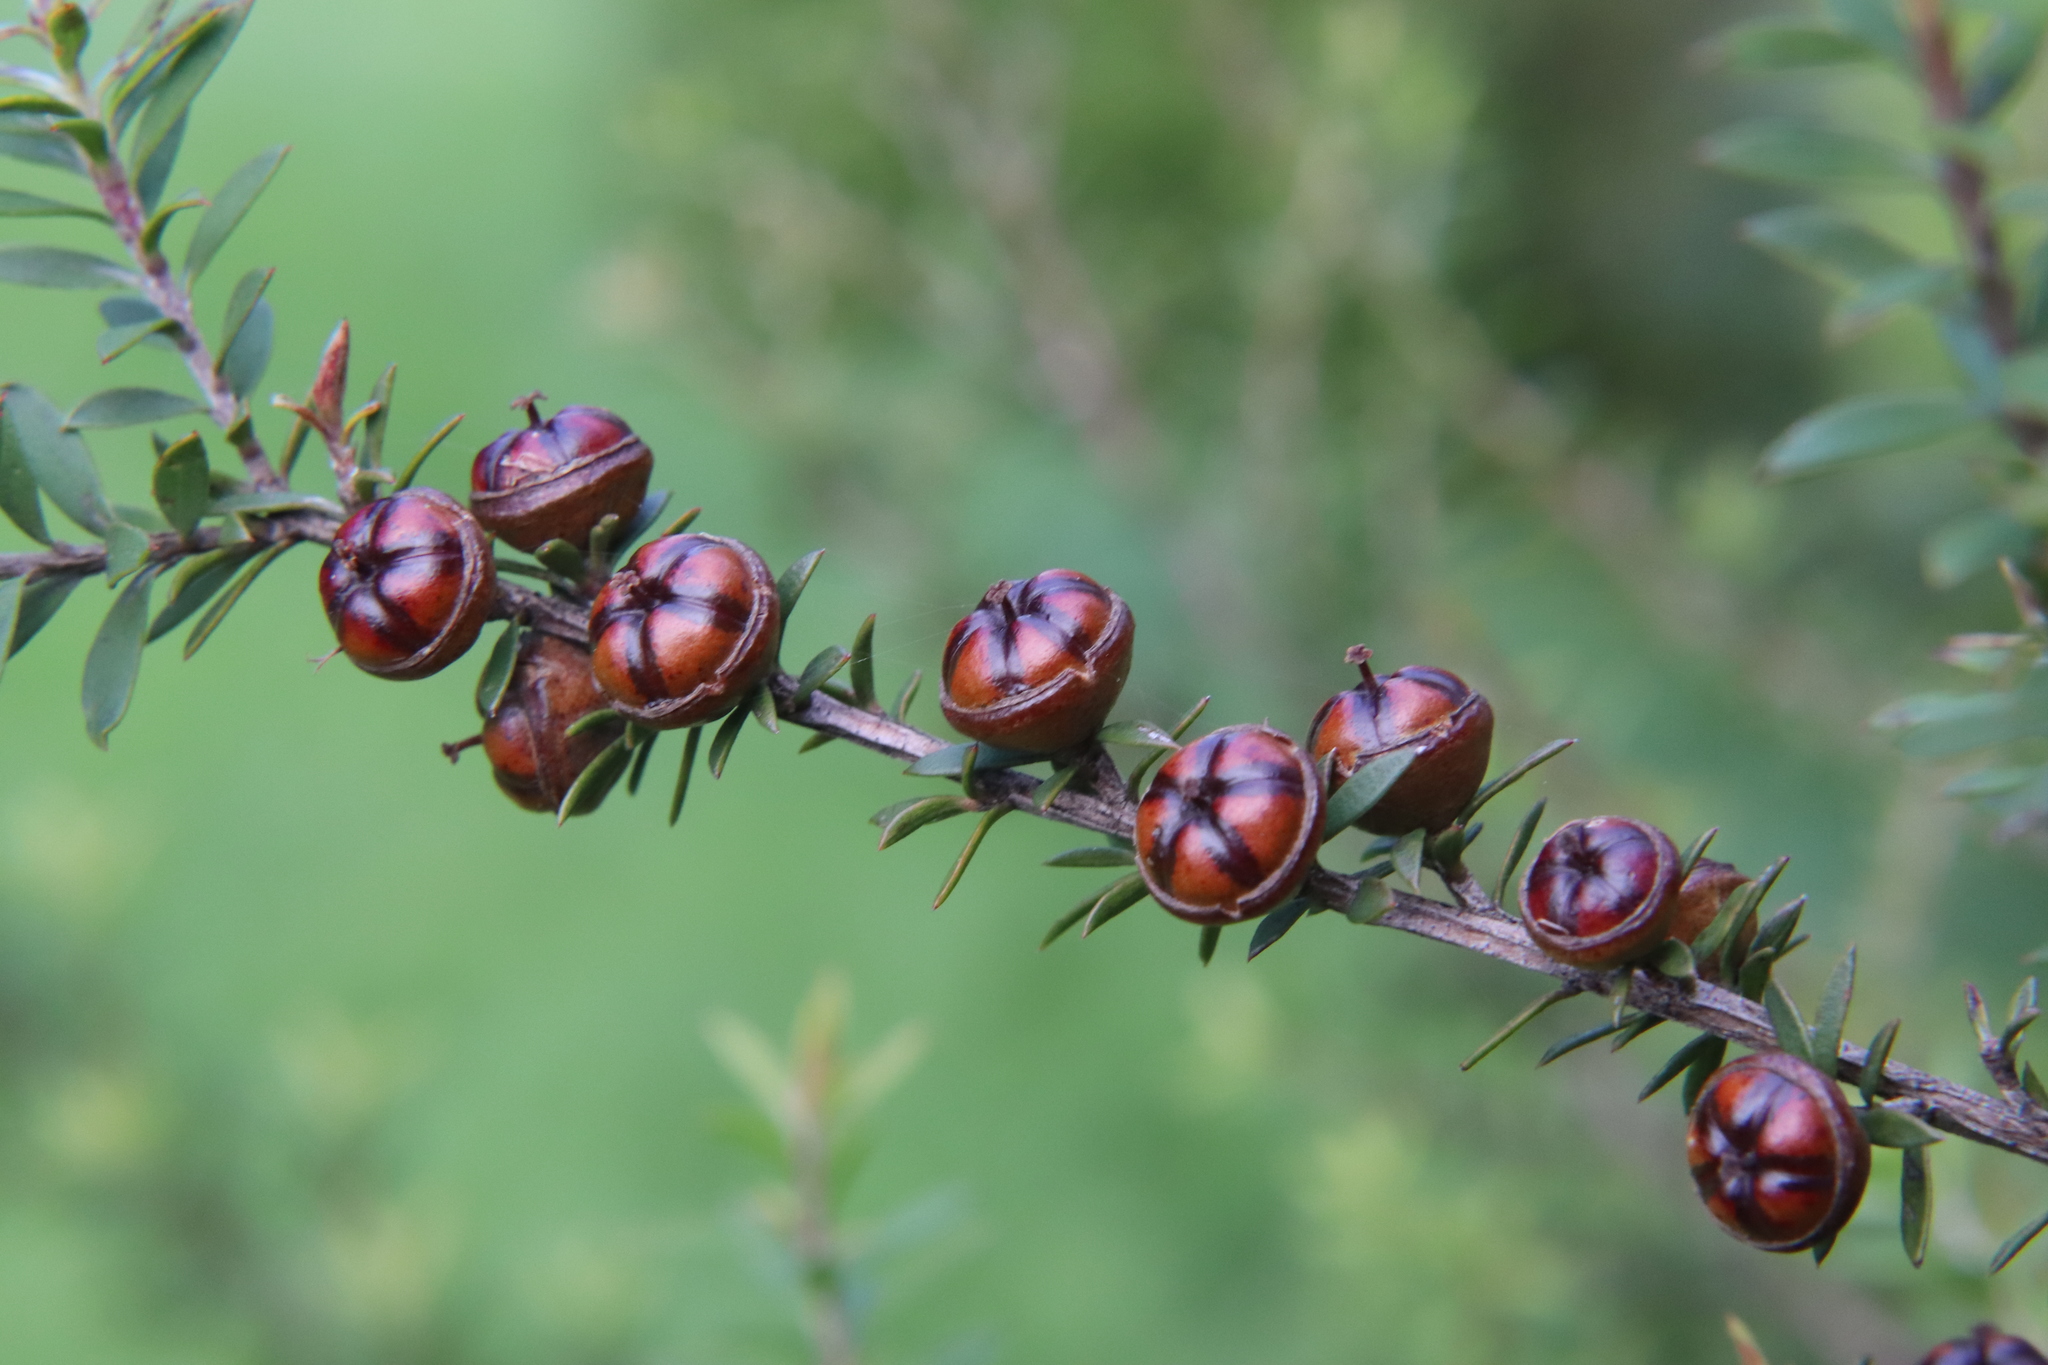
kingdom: Plantae
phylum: Tracheophyta
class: Magnoliopsida
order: Myrtales
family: Myrtaceae
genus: Leptospermum
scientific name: Leptospermum scoparium
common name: Broom tea-tree
